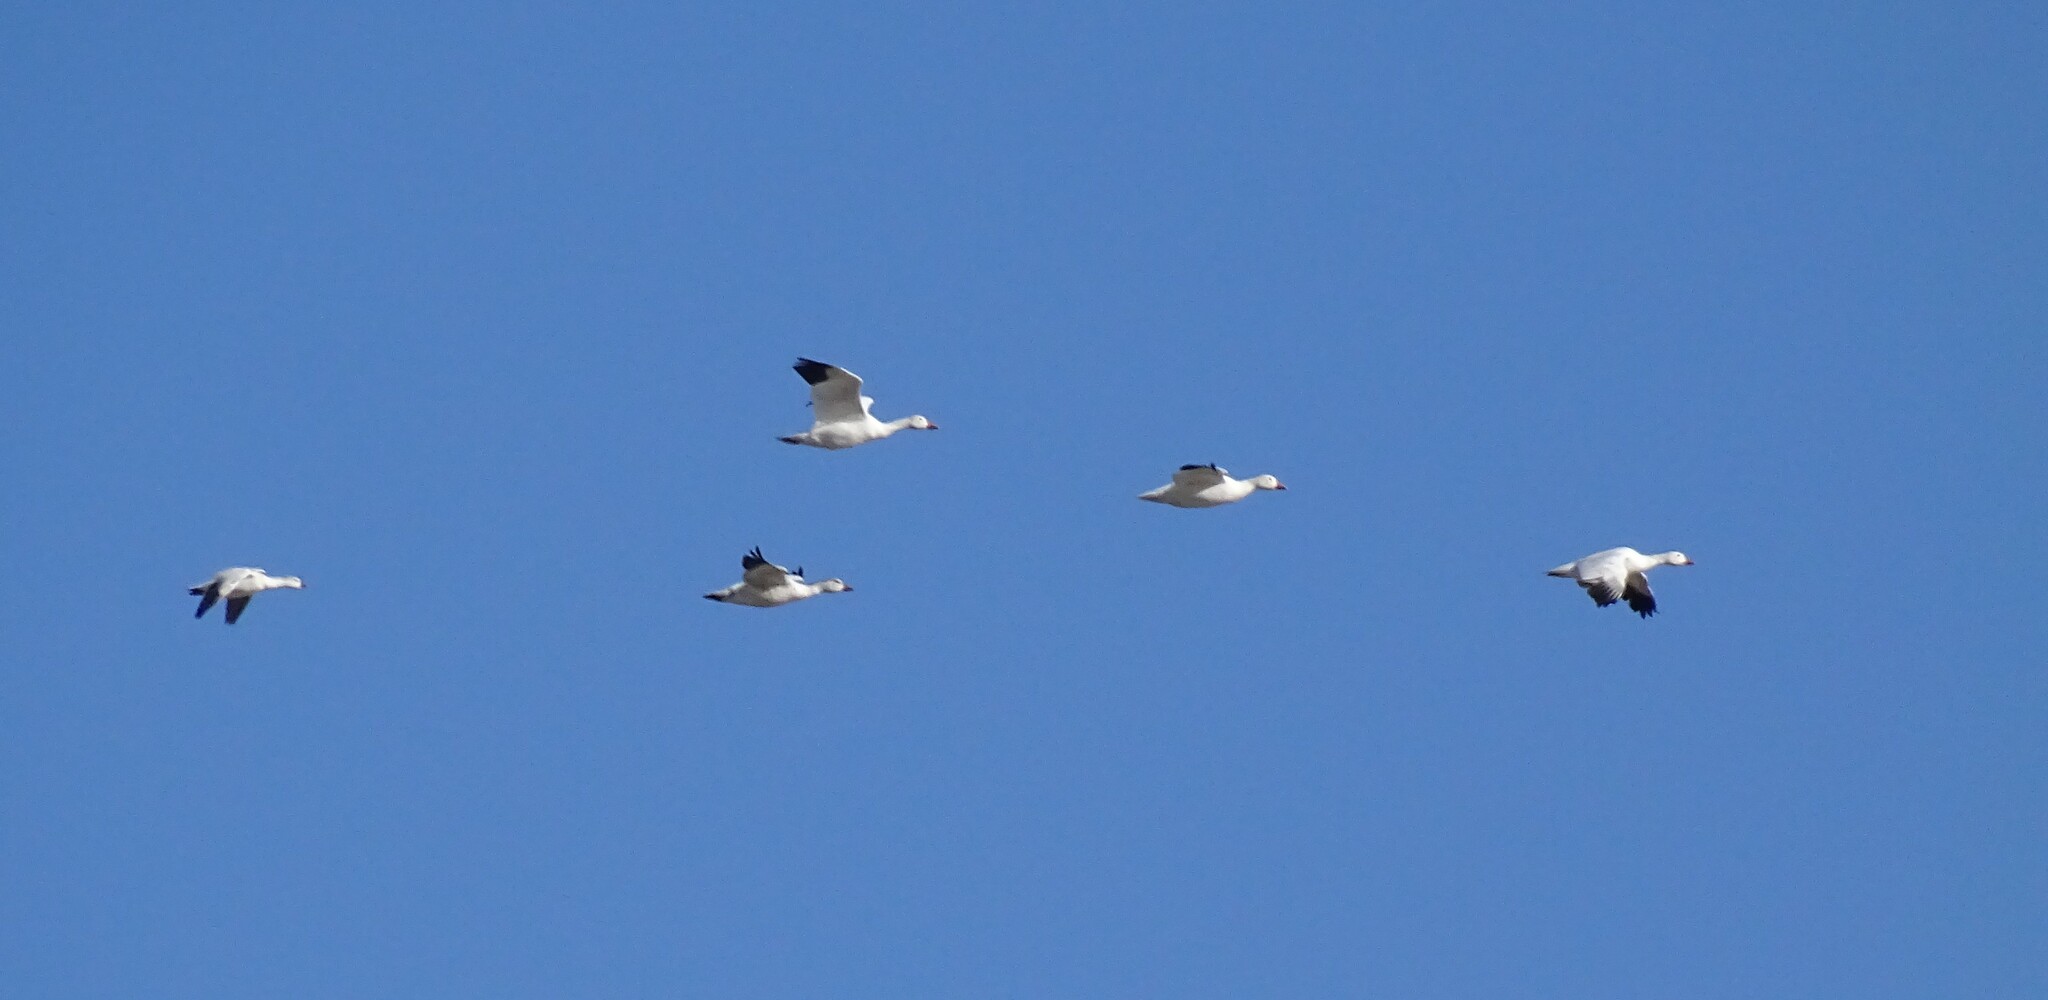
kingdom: Animalia
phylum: Chordata
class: Aves
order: Anseriformes
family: Anatidae
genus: Anser
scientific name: Anser caerulescens
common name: Snow goose
